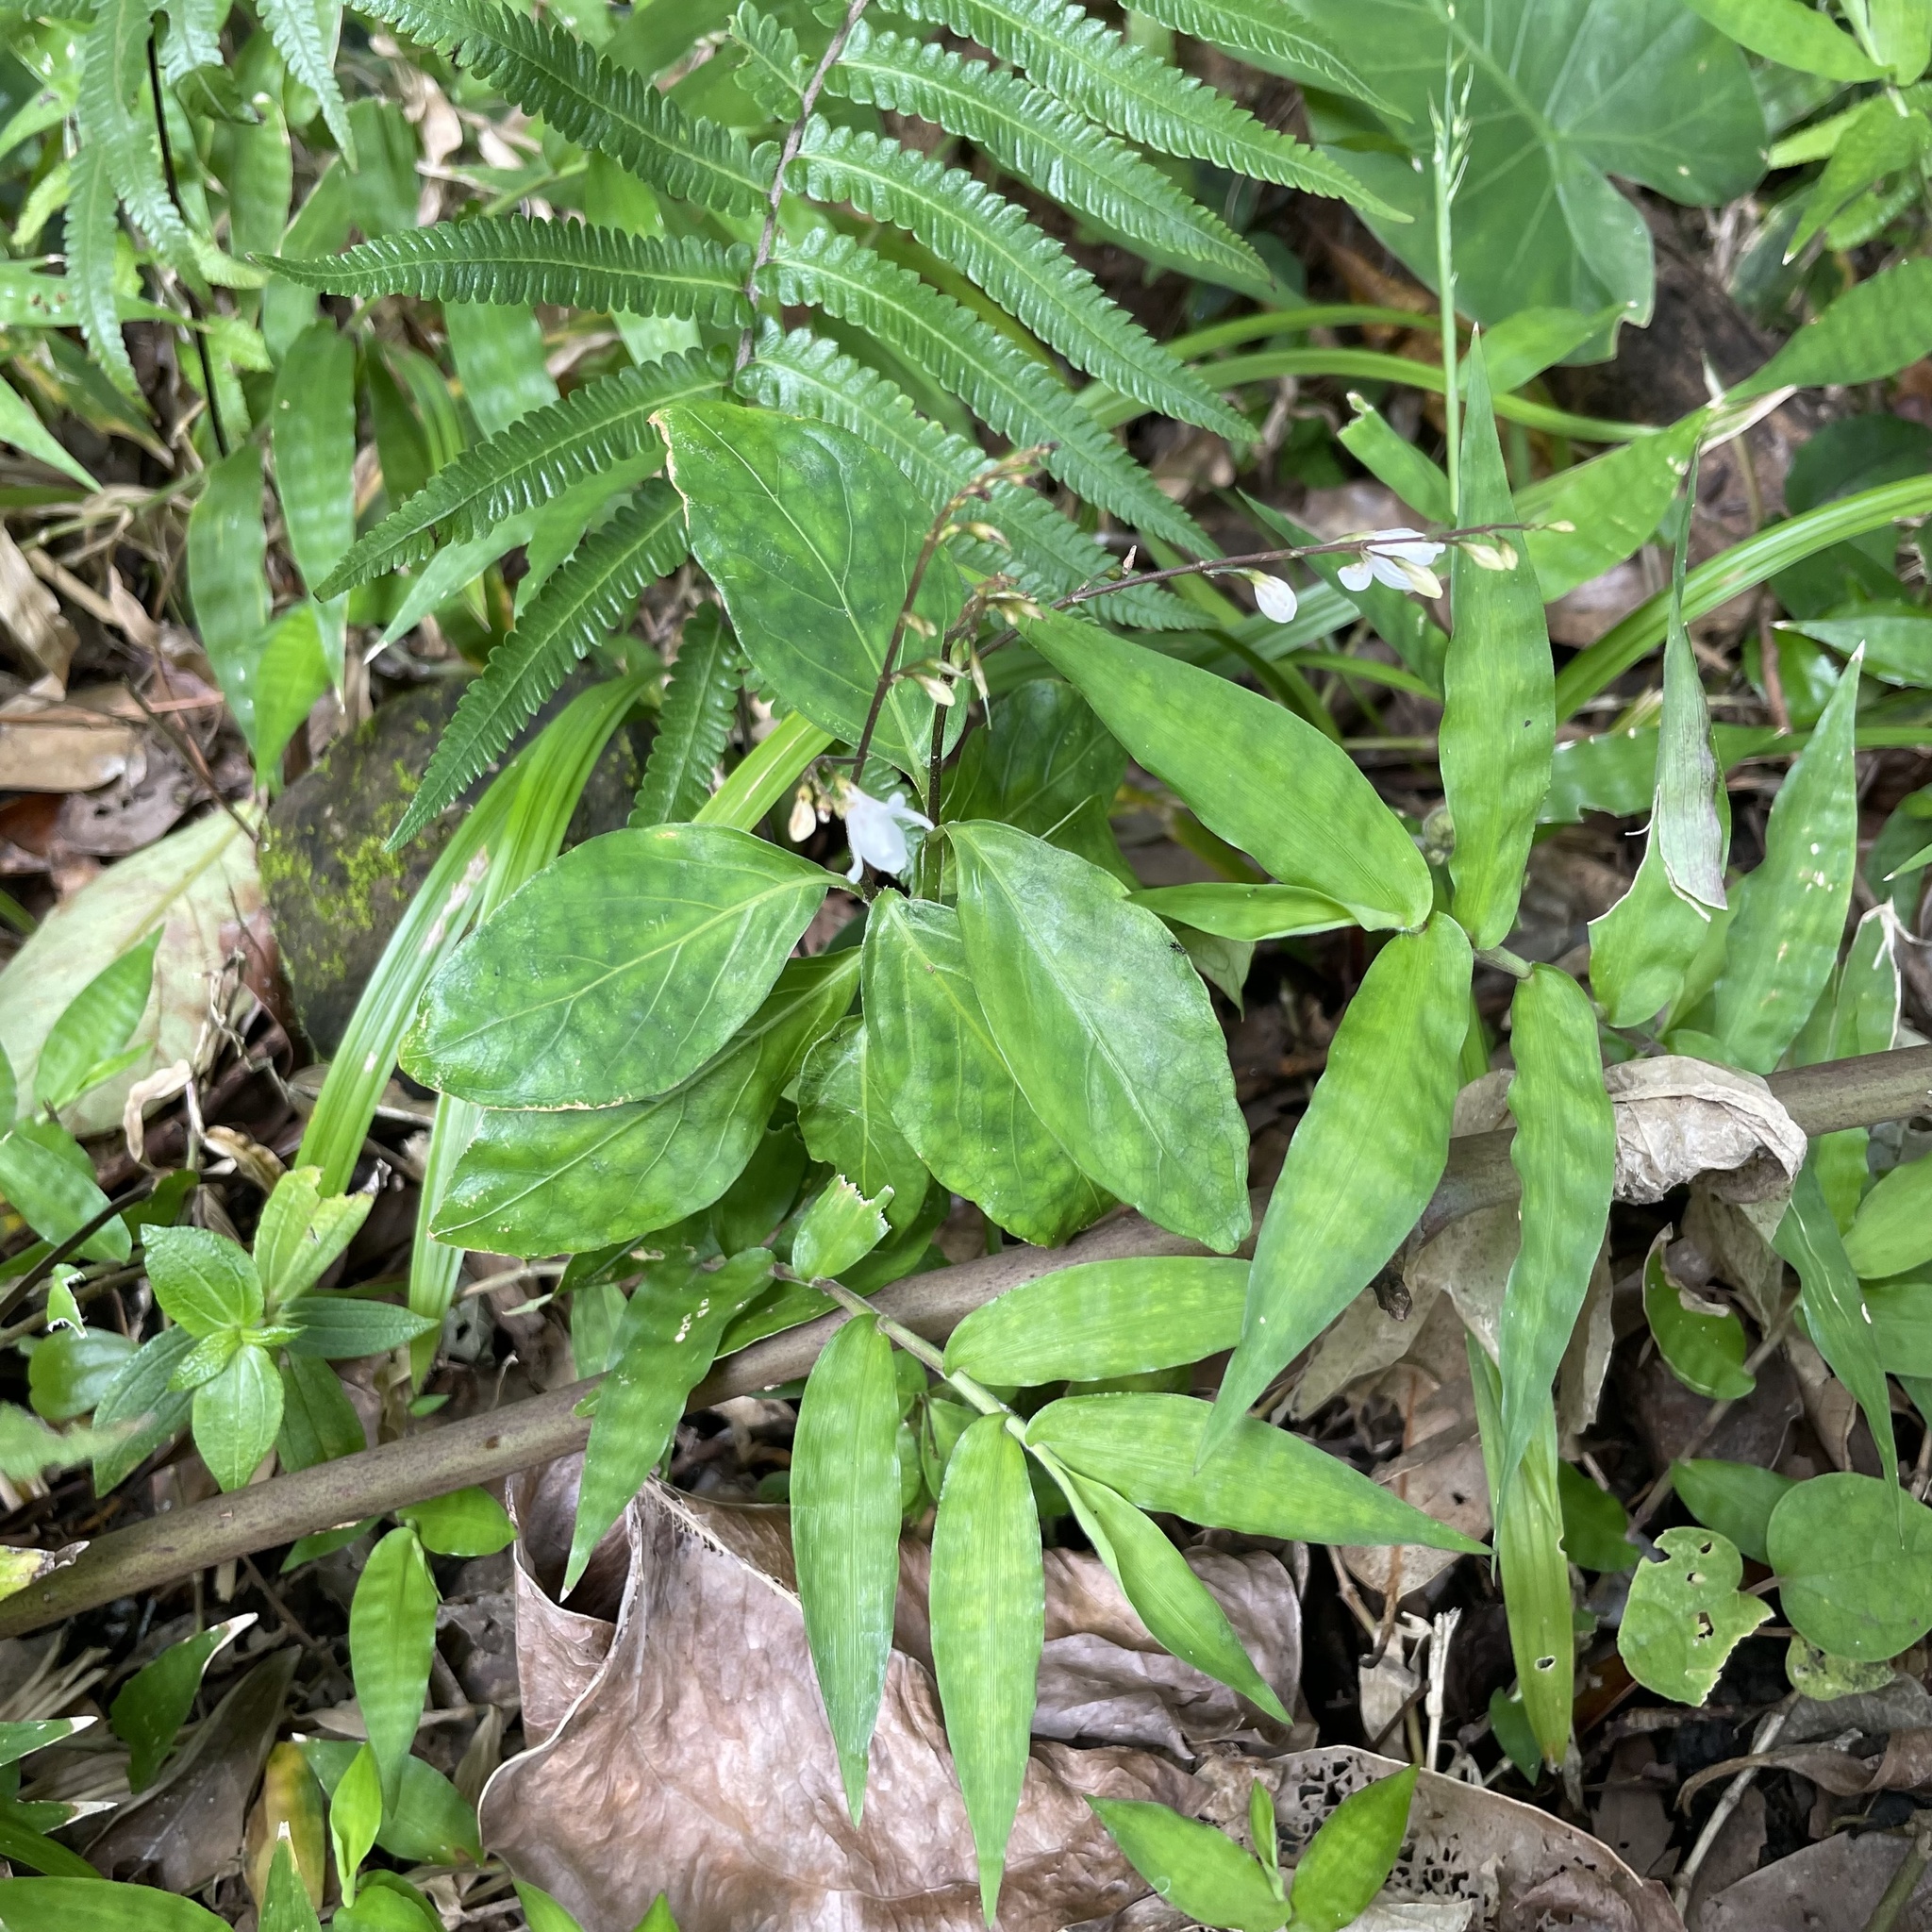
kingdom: Plantae
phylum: Tracheophyta
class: Magnoliopsida
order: Lamiales
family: Acanthaceae
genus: Codonacanthus
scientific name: Codonacanthus pauciflorus
